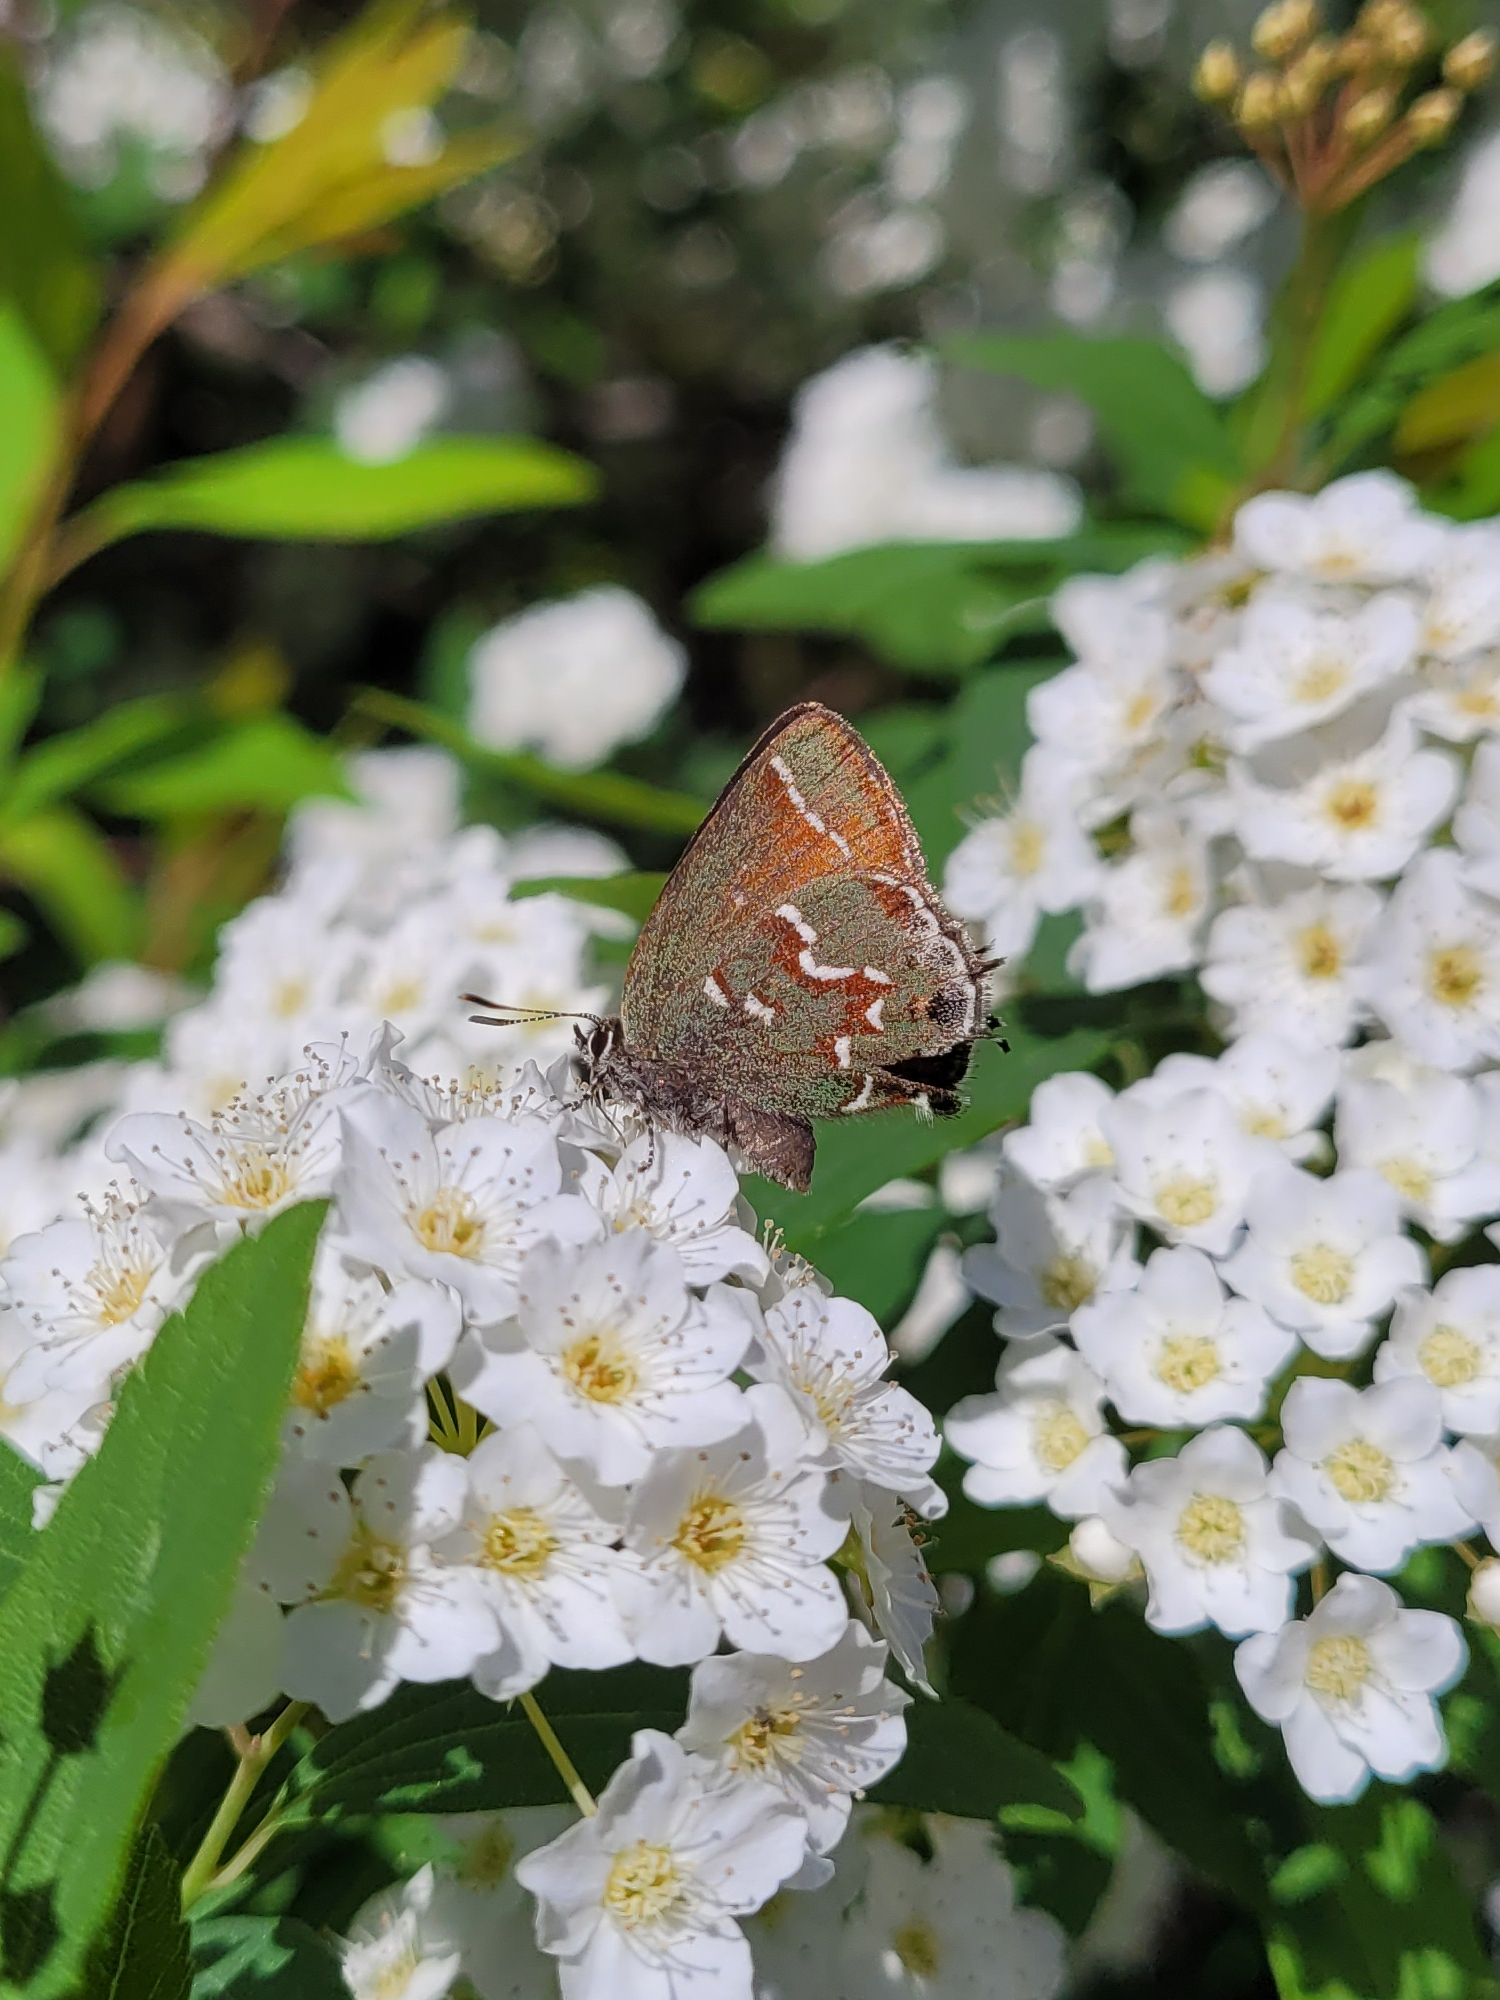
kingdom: Animalia
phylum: Arthropoda
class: Insecta
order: Lepidoptera
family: Lycaenidae
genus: Mitoura
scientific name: Mitoura gryneus
